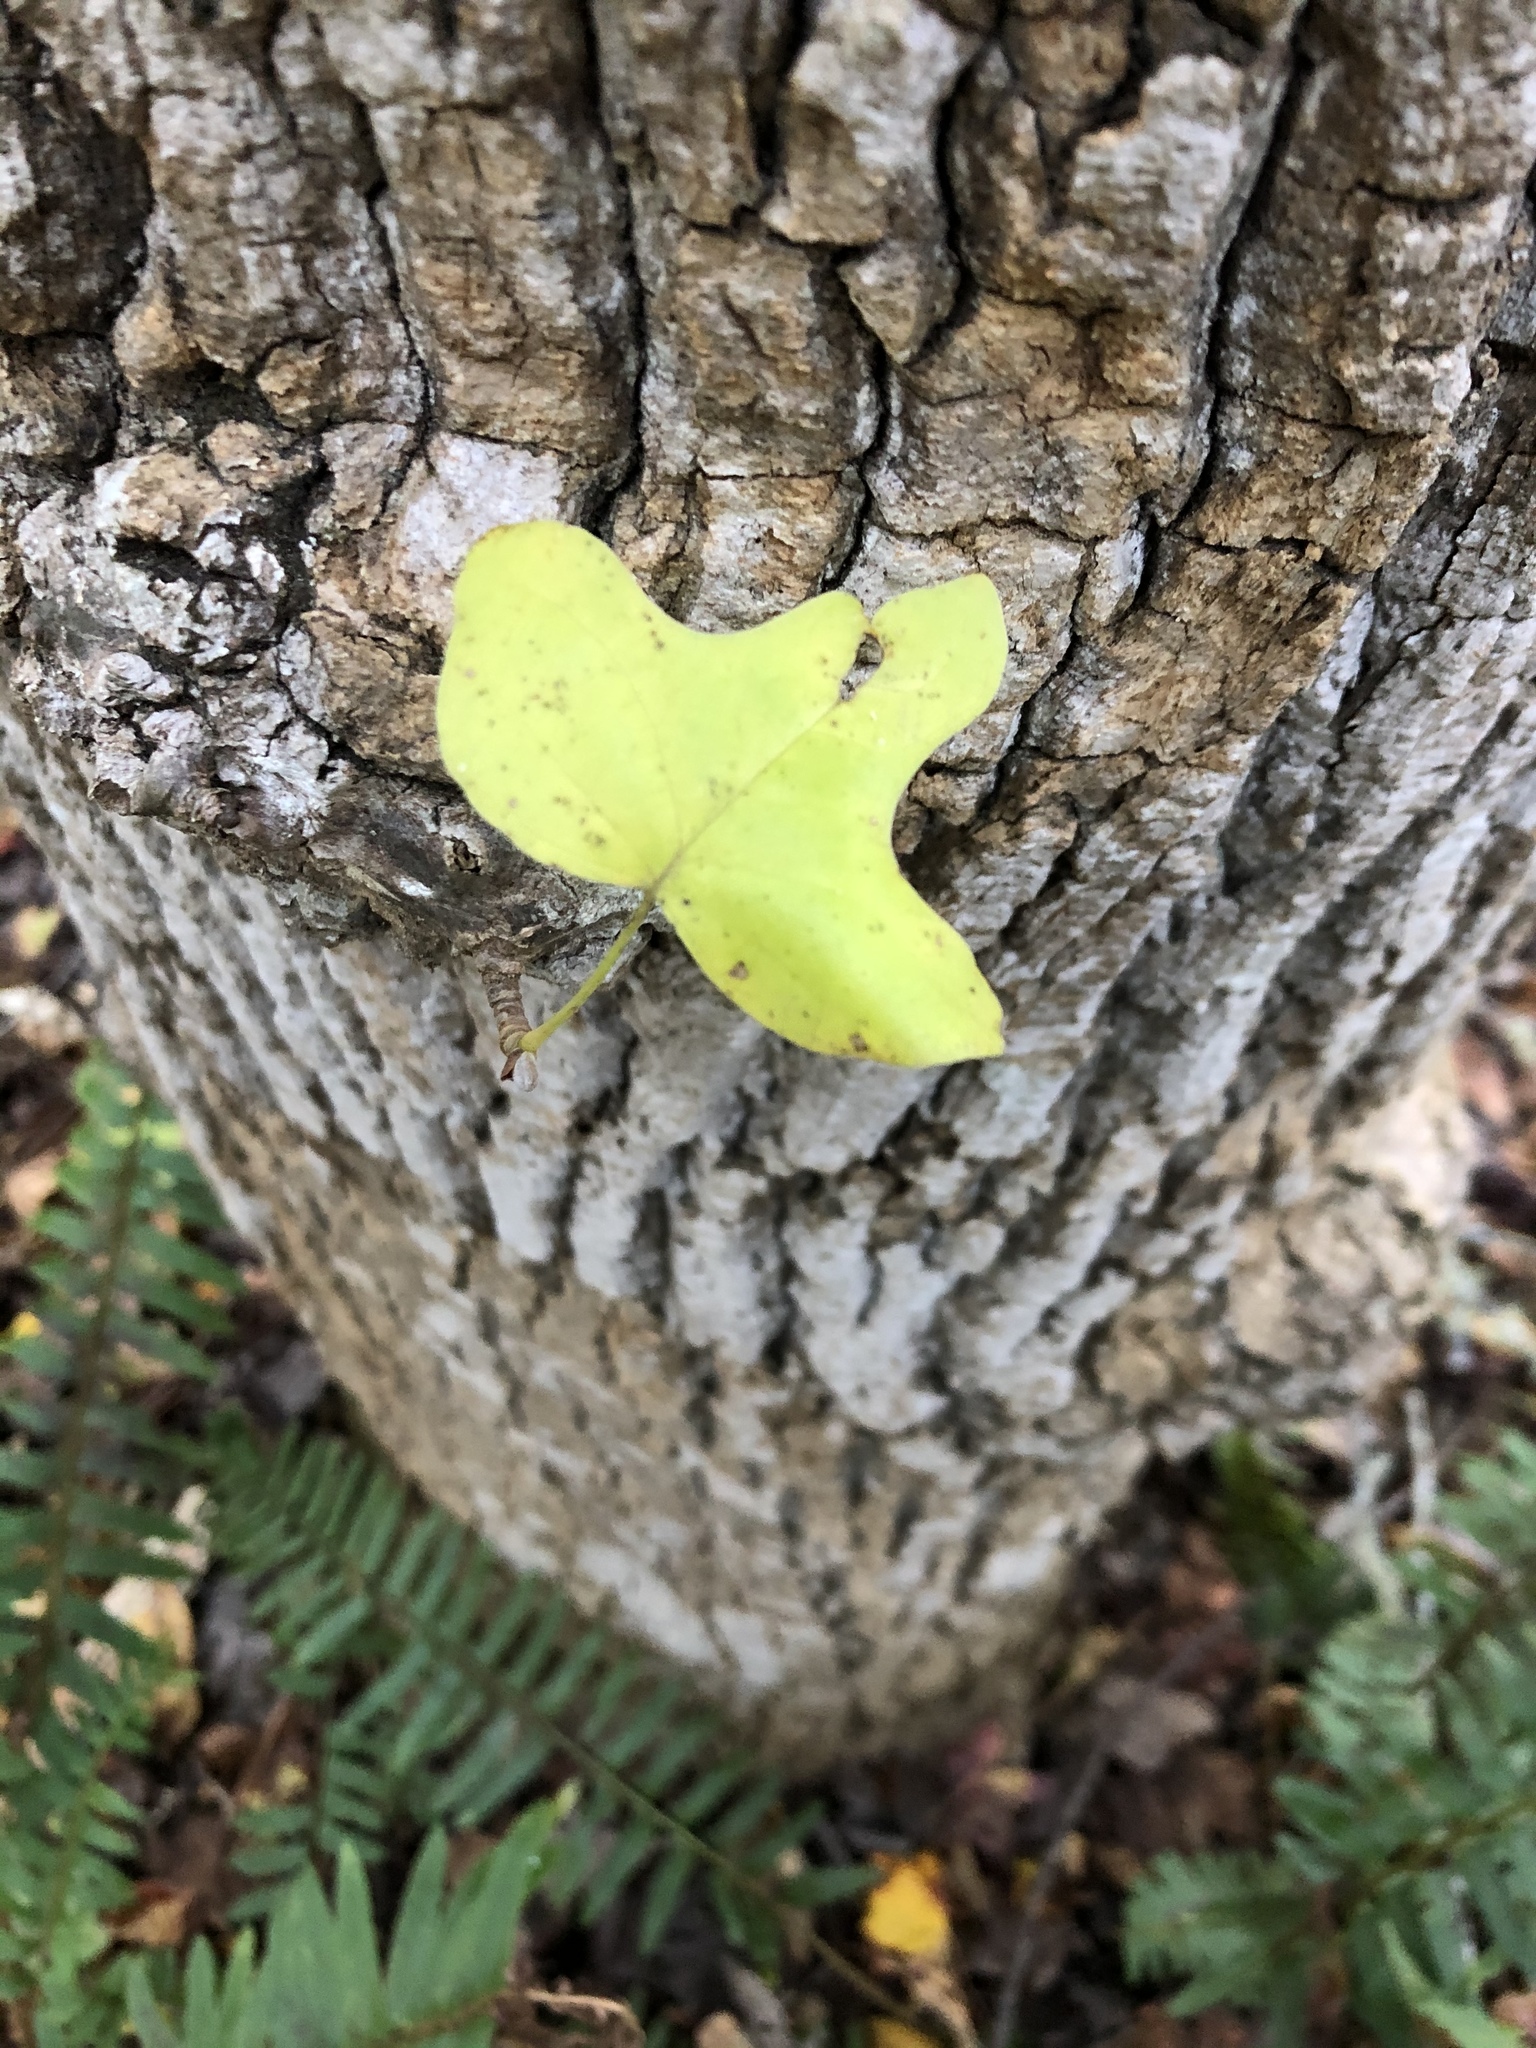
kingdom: Plantae
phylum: Tracheophyta
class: Magnoliopsida
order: Magnoliales
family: Magnoliaceae
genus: Liriodendron
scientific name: Liriodendron tulipifera
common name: Tulip tree
